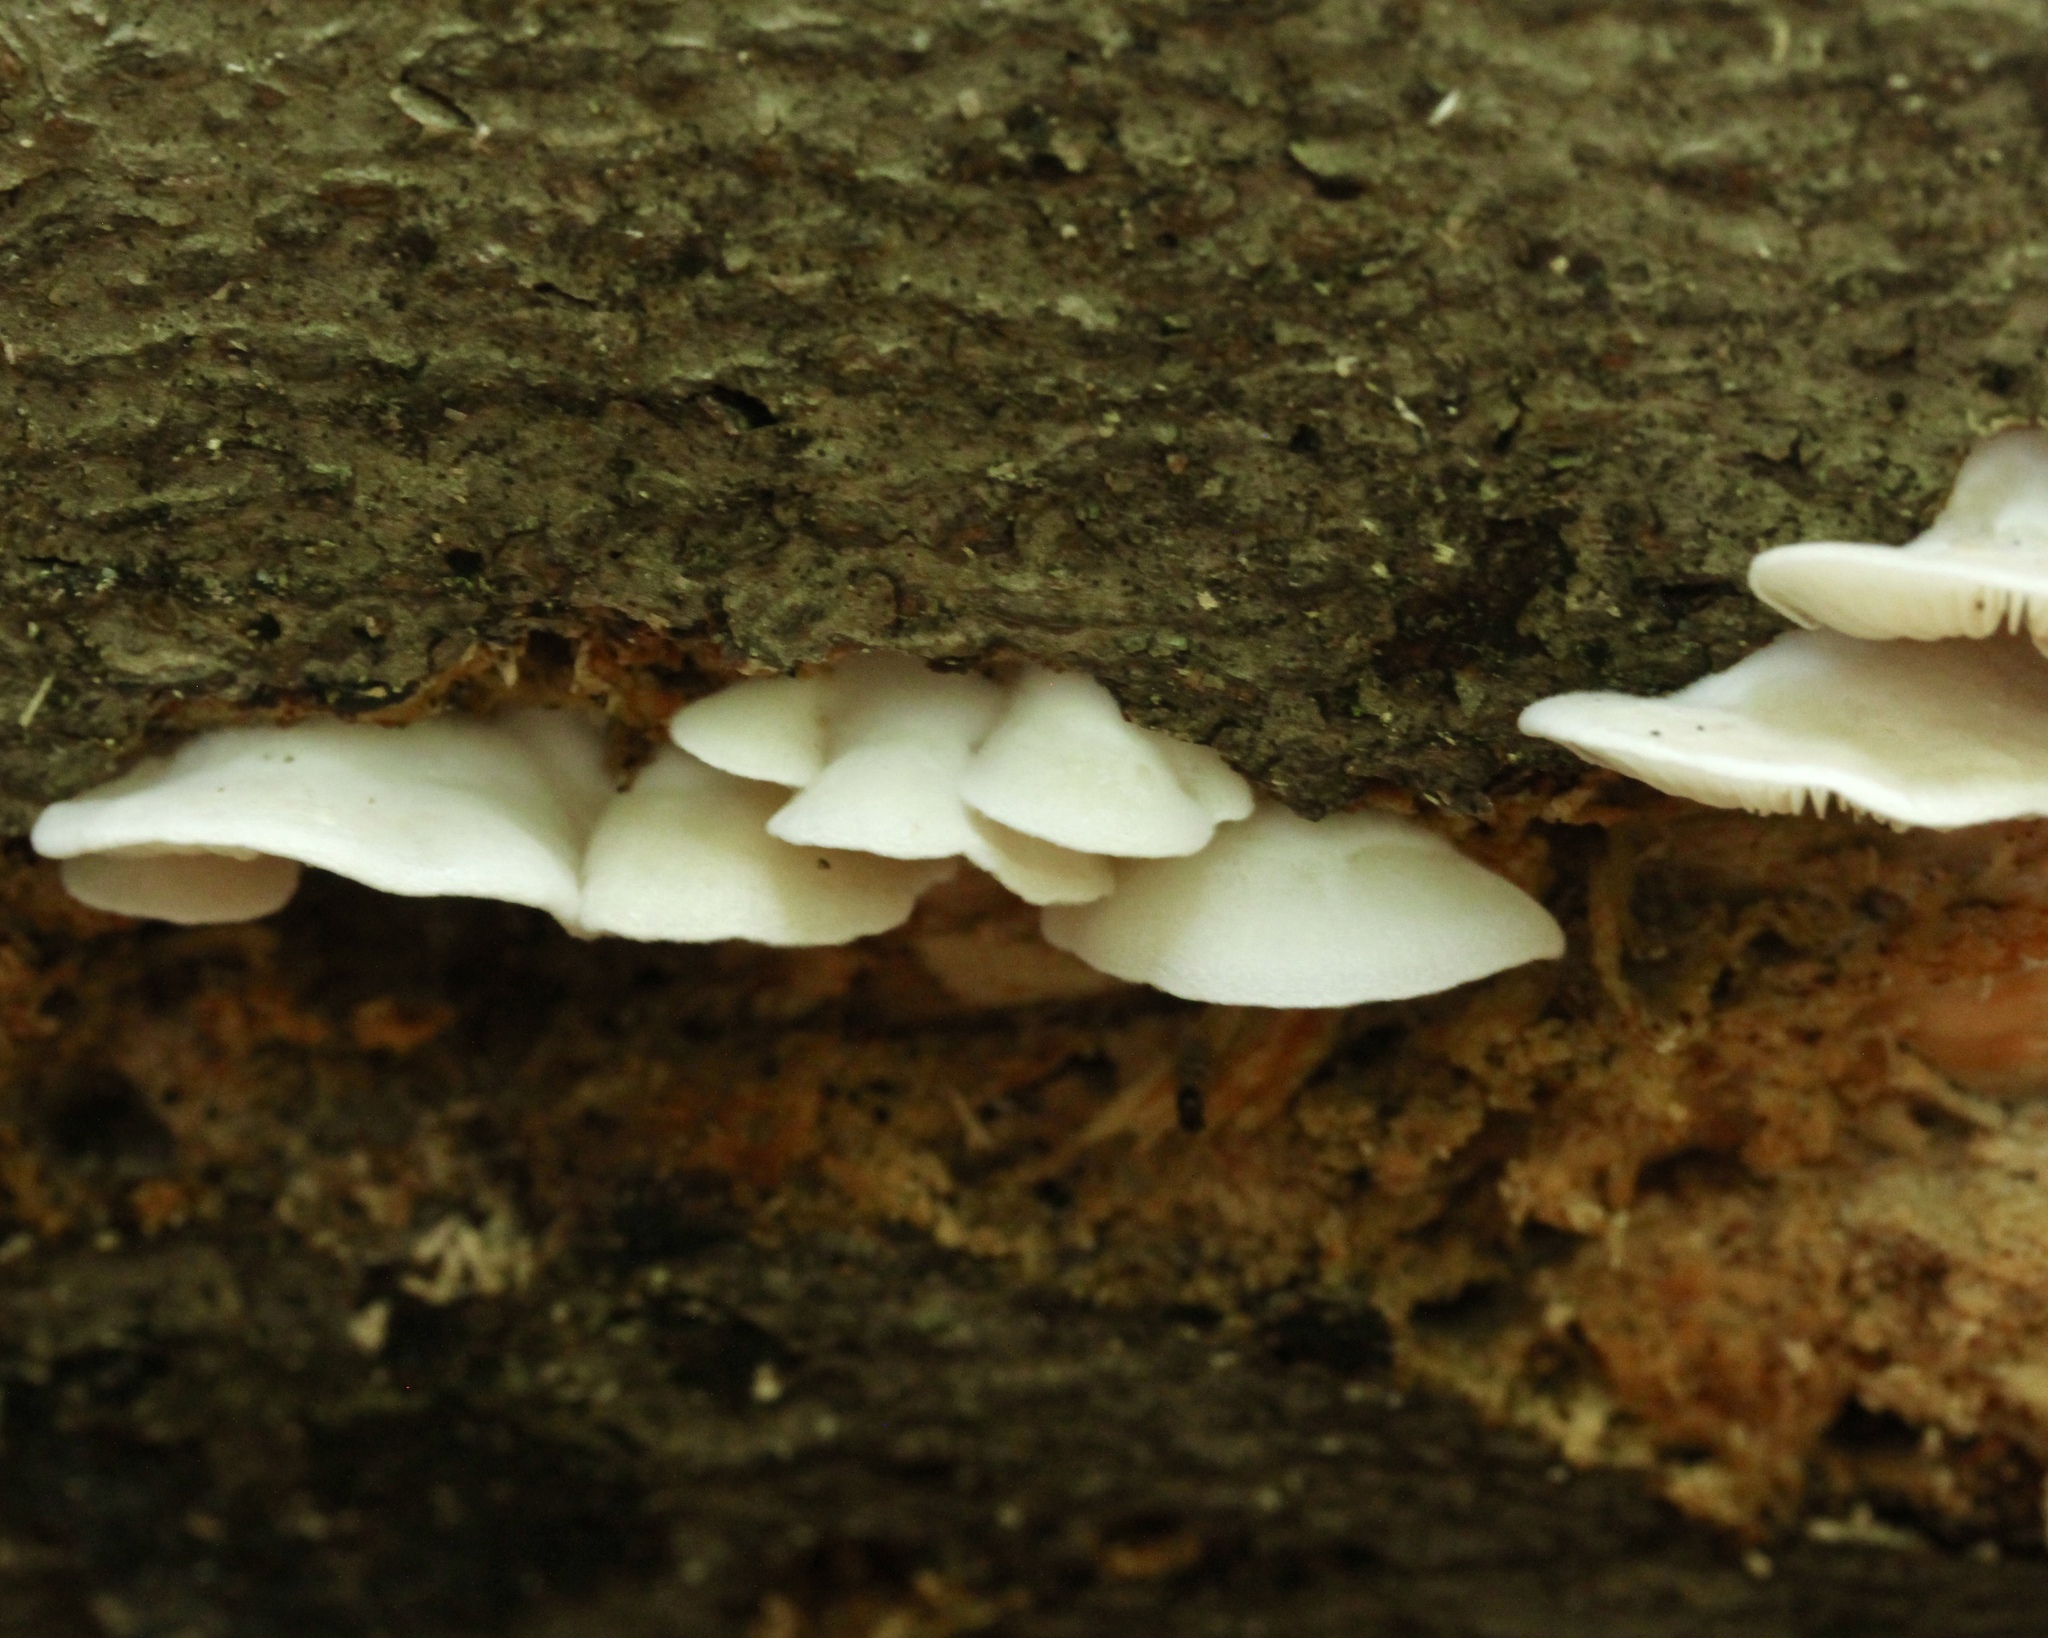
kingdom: Fungi
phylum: Basidiomycota
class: Agaricomycetes
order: Agaricales
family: Crepidotaceae
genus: Crepidotus
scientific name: Crepidotus applanatus
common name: Flat crep
